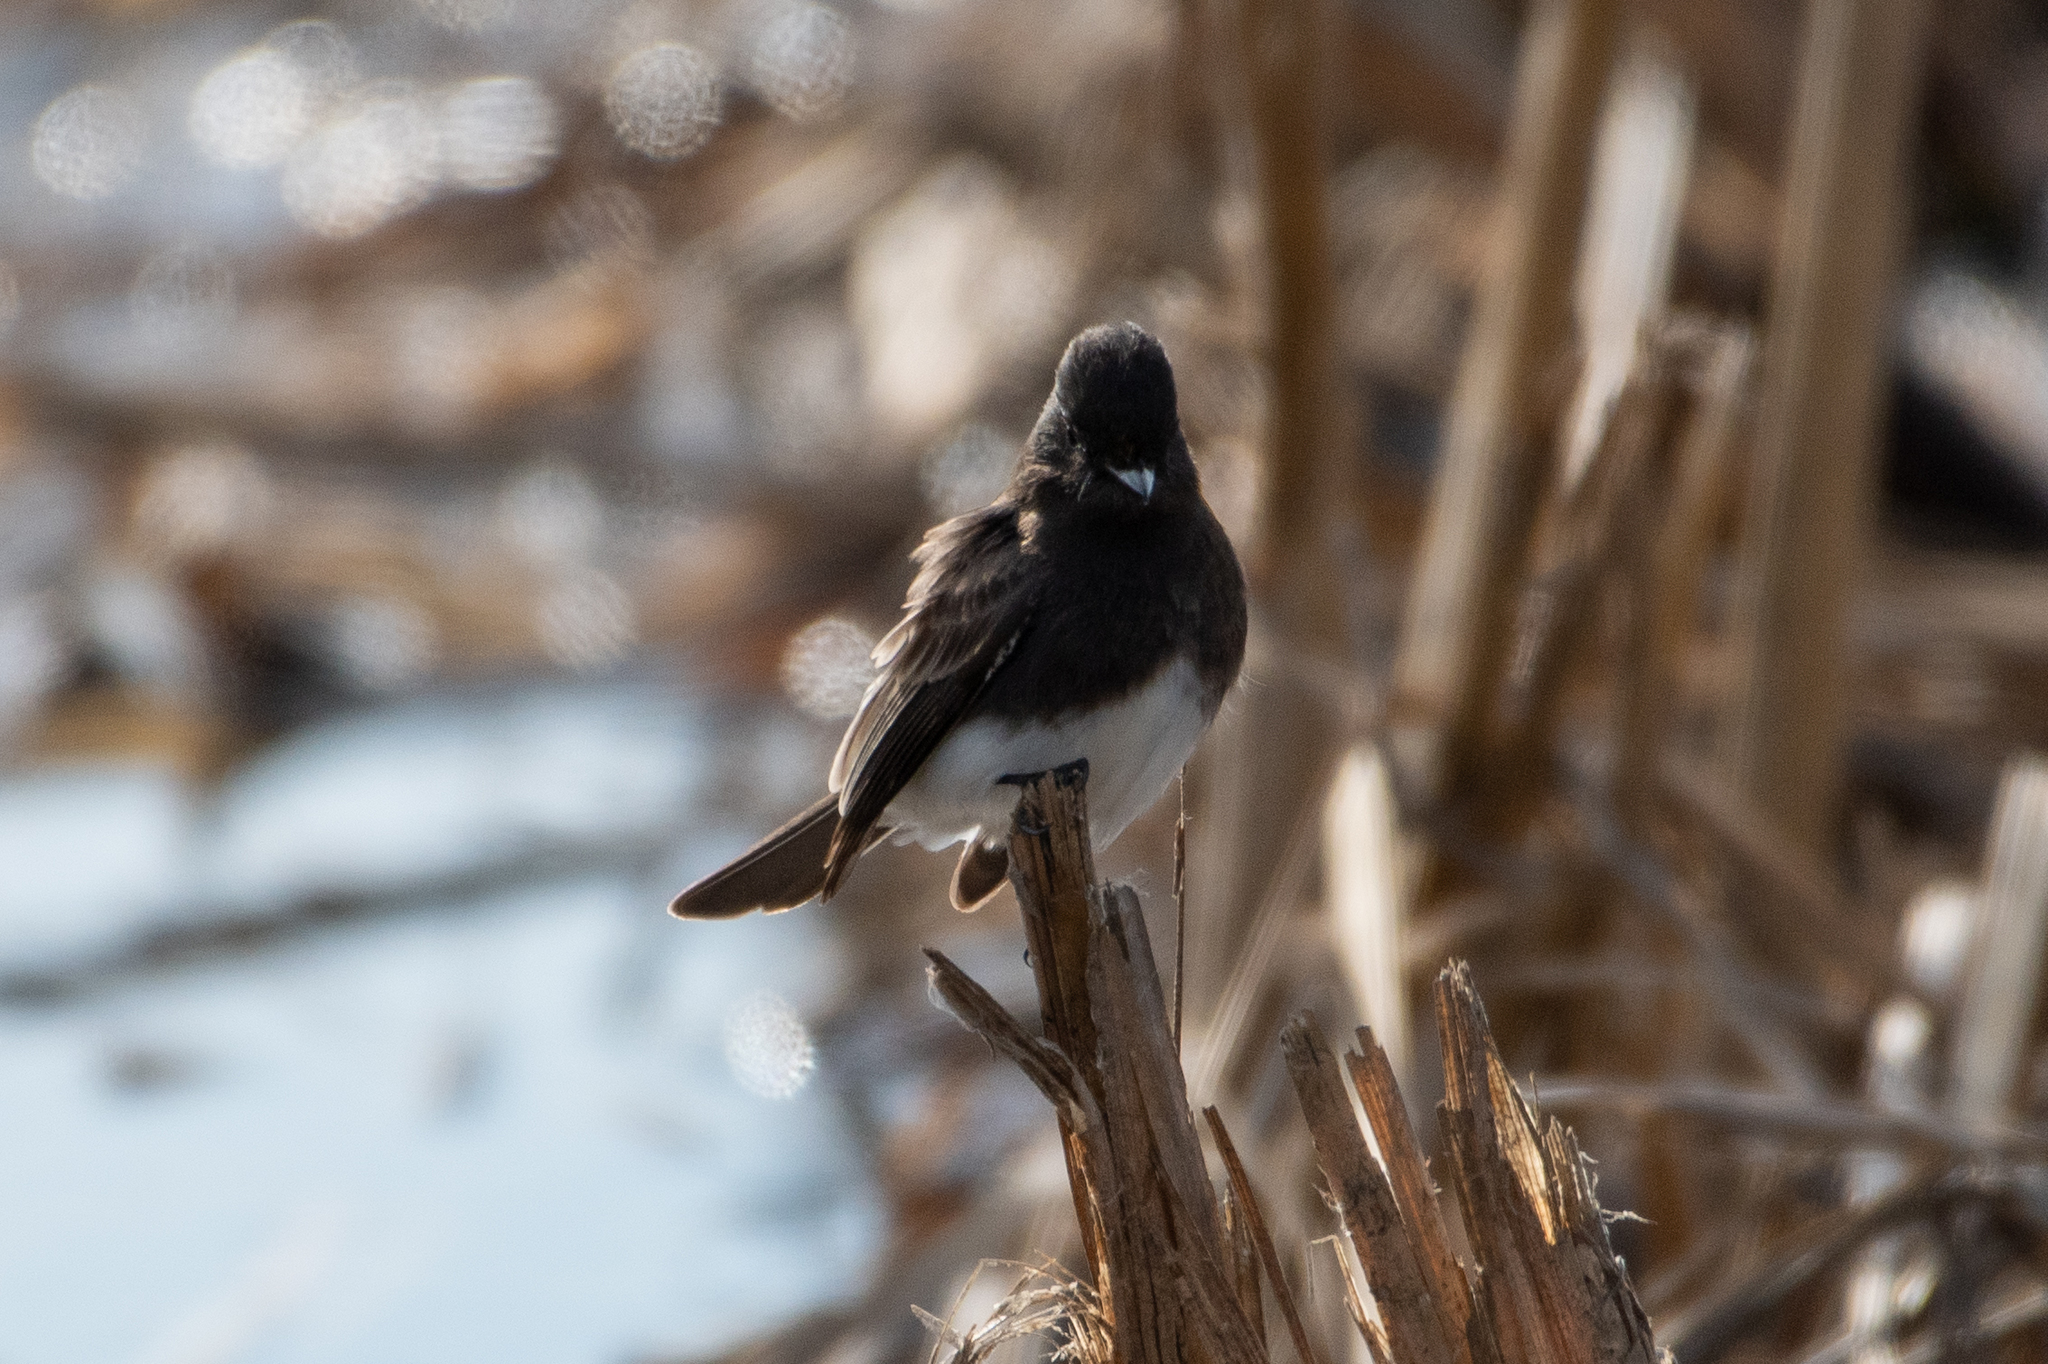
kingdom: Animalia
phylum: Chordata
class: Aves
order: Passeriformes
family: Tyrannidae
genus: Sayornis
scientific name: Sayornis nigricans
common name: Black phoebe
